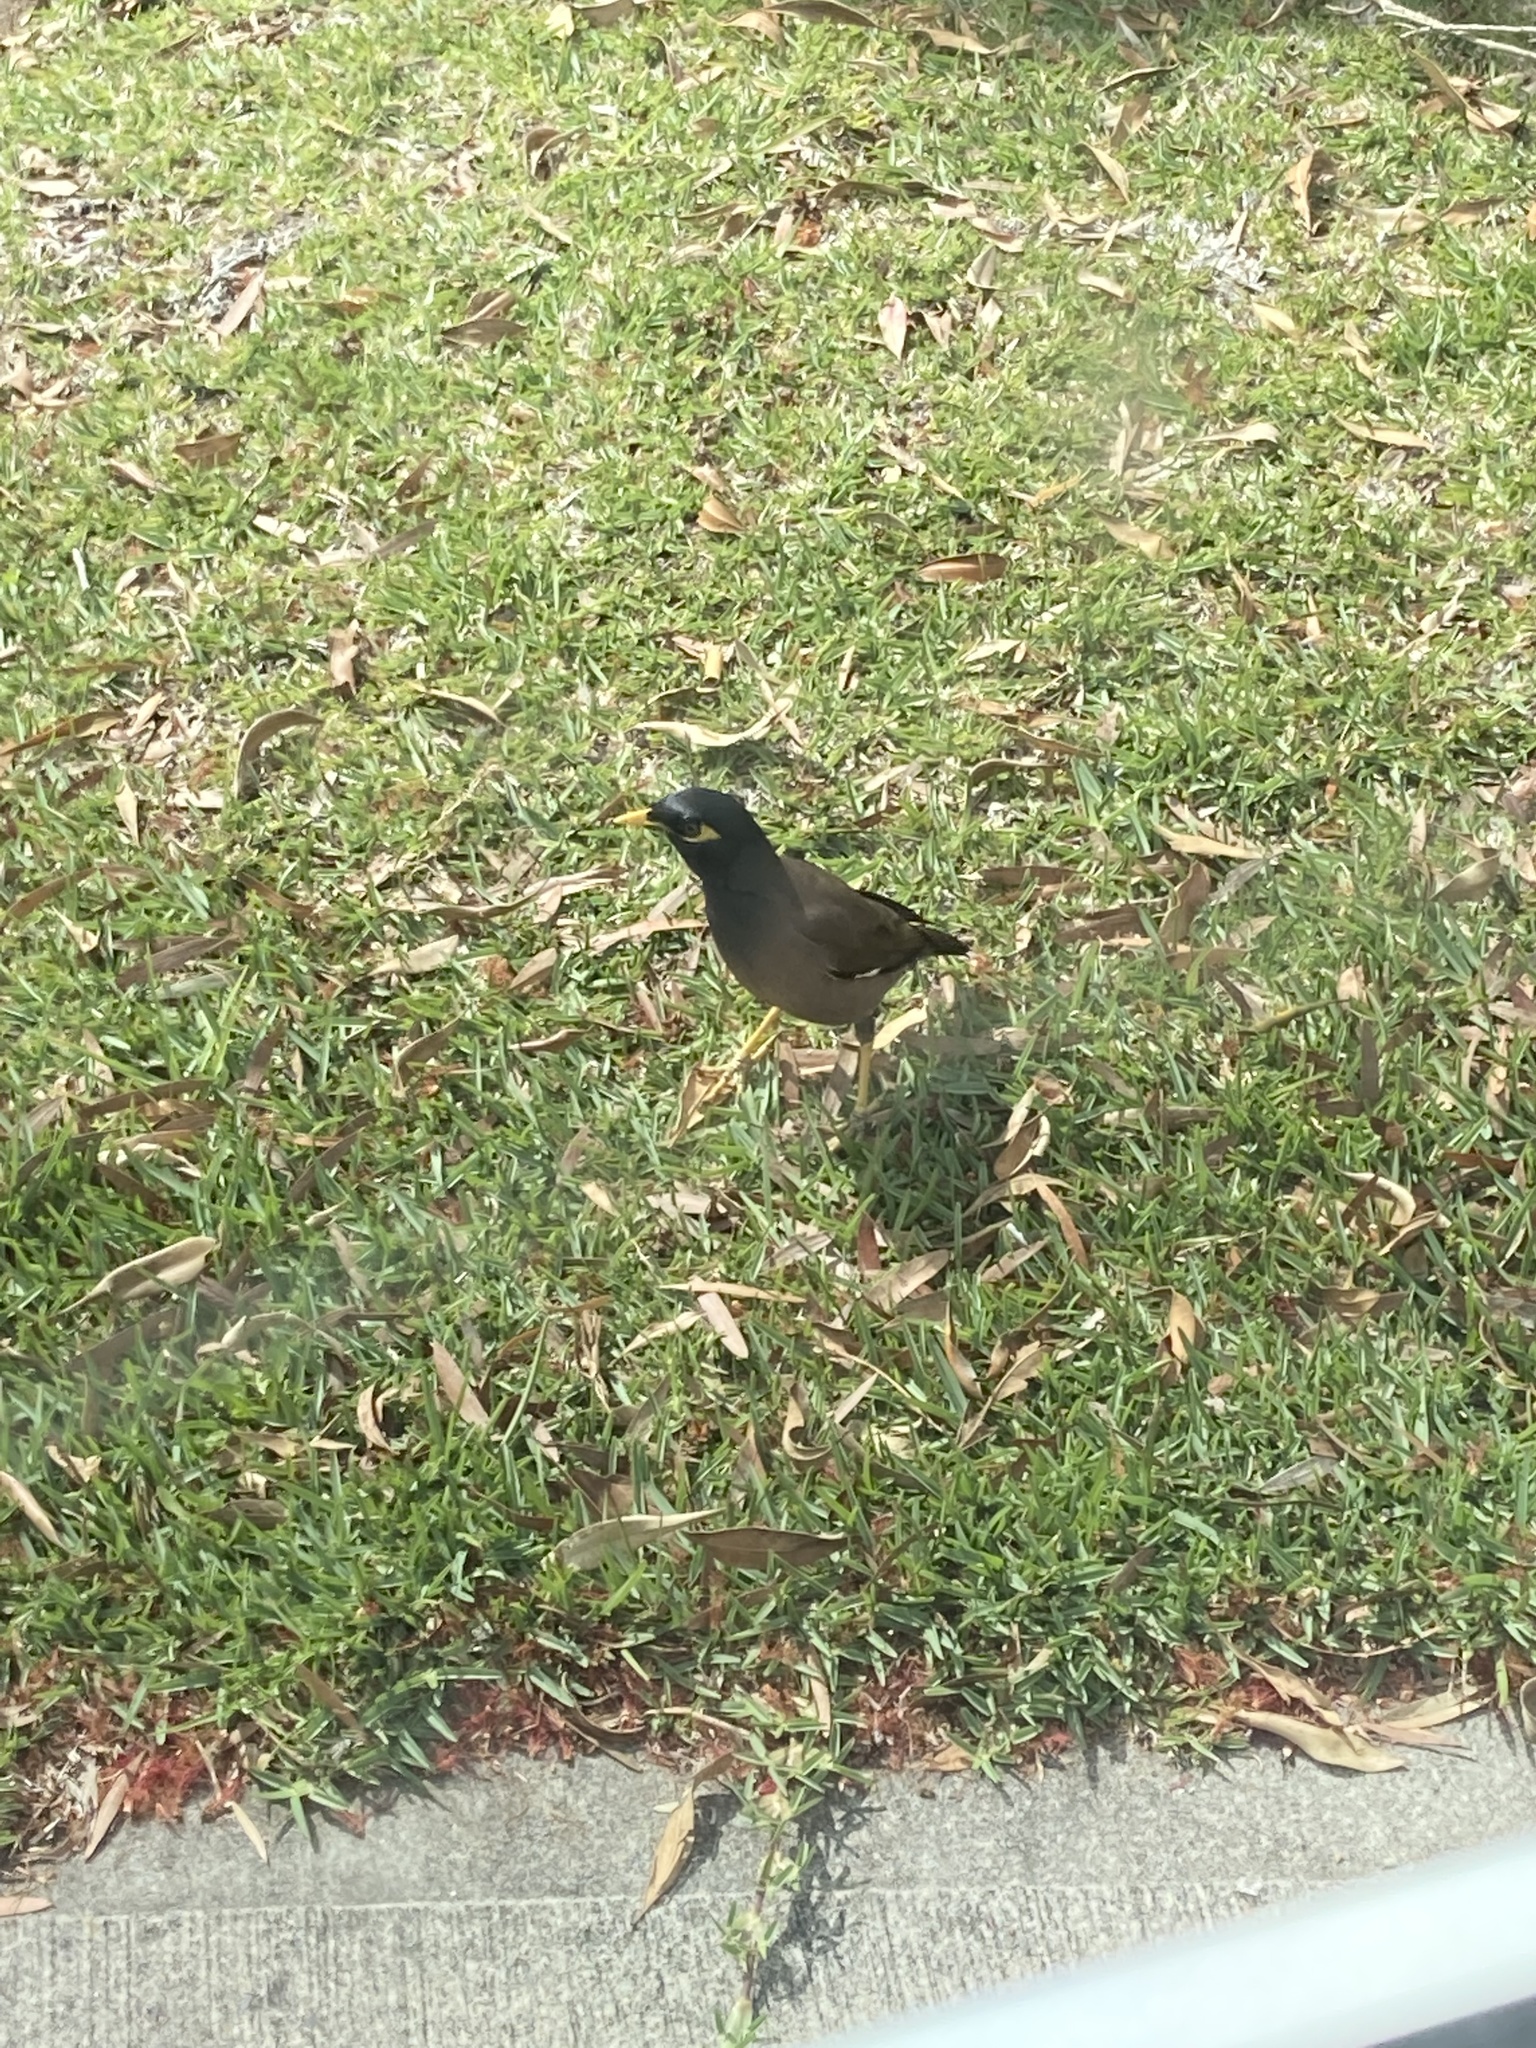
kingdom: Animalia
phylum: Chordata
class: Aves
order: Passeriformes
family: Sturnidae
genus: Acridotheres
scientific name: Acridotheres tristis
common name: Common myna
